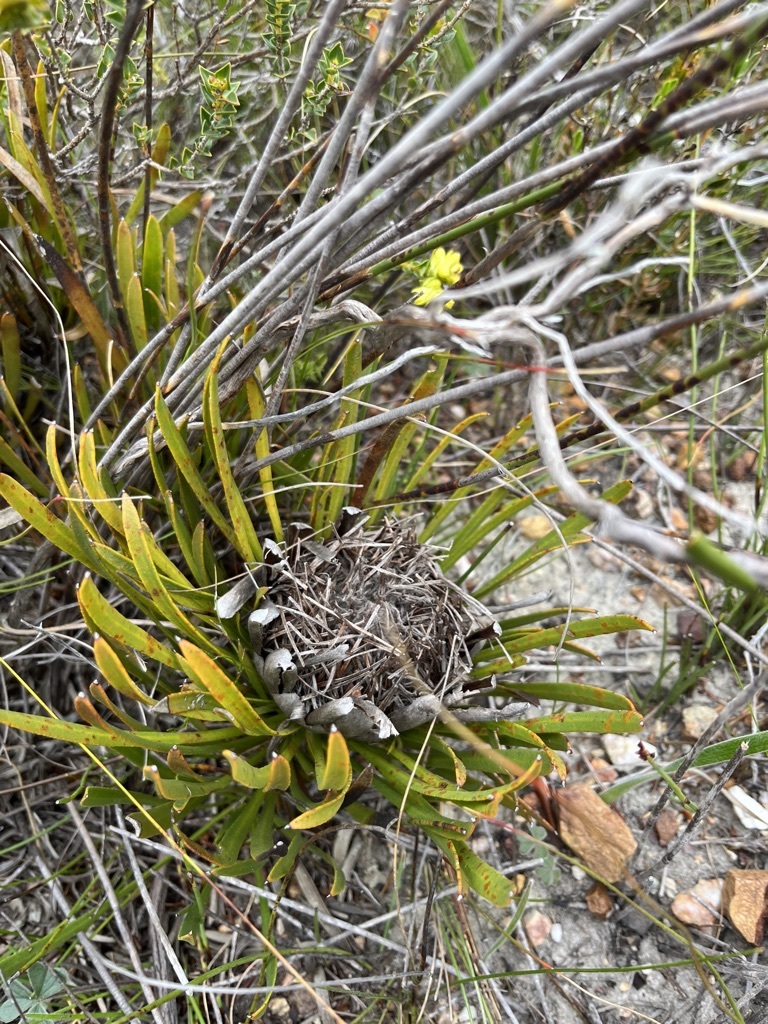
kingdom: Plantae
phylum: Tracheophyta
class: Magnoliopsida
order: Proteales
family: Proteaceae
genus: Protea
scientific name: Protea aspera
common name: Rough-leaf sugarbush
